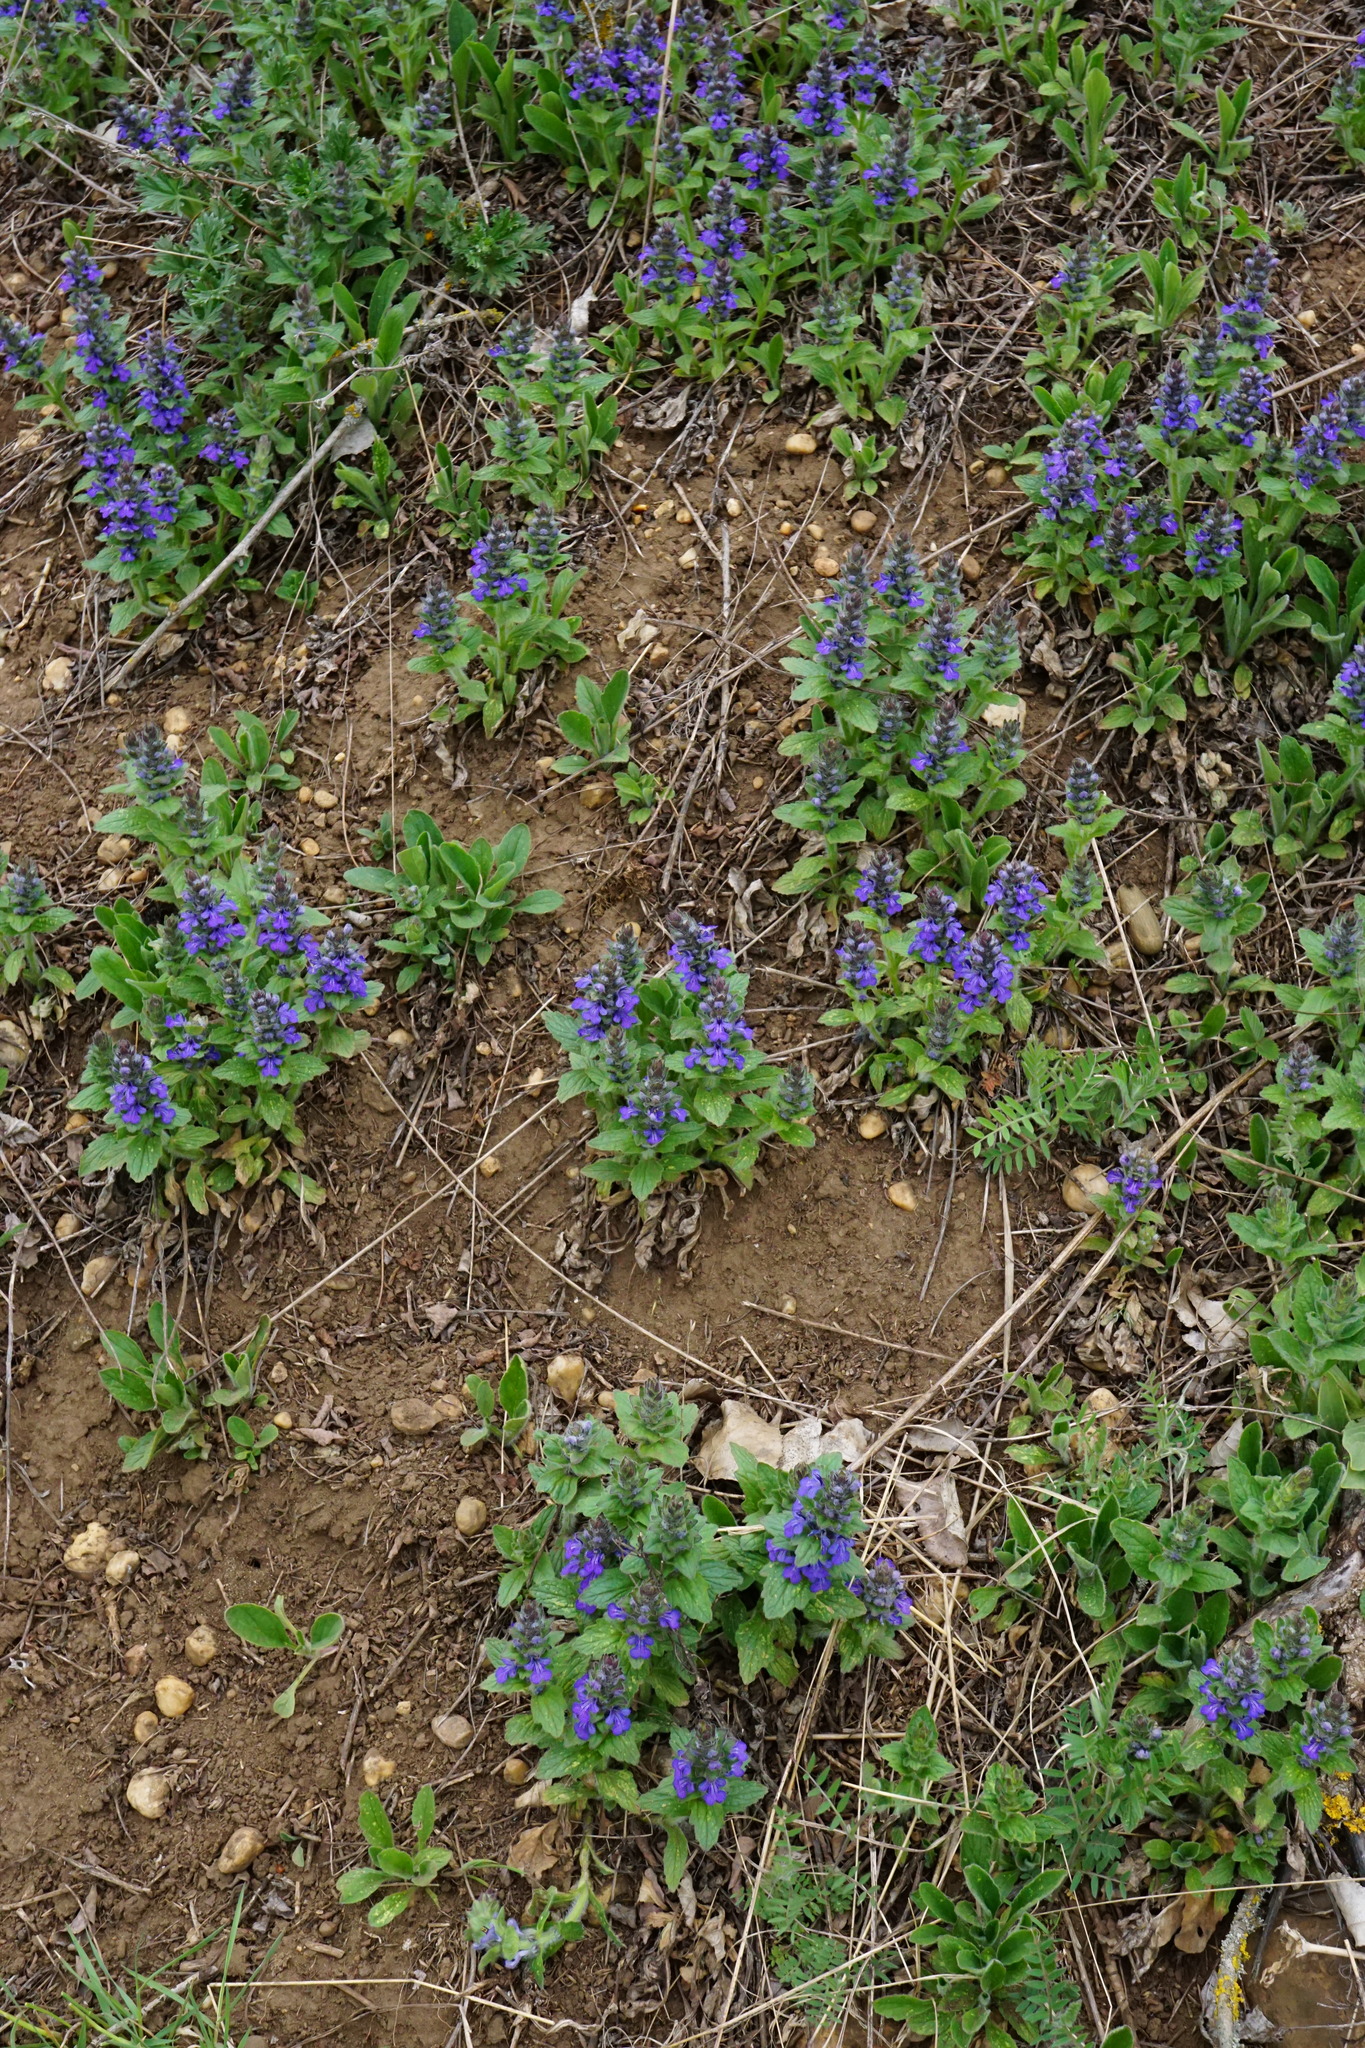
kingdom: Plantae
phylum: Tracheophyta
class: Magnoliopsida
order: Lamiales
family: Lamiaceae
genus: Ajuga
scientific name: Ajuga genevensis
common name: Blue bugle
